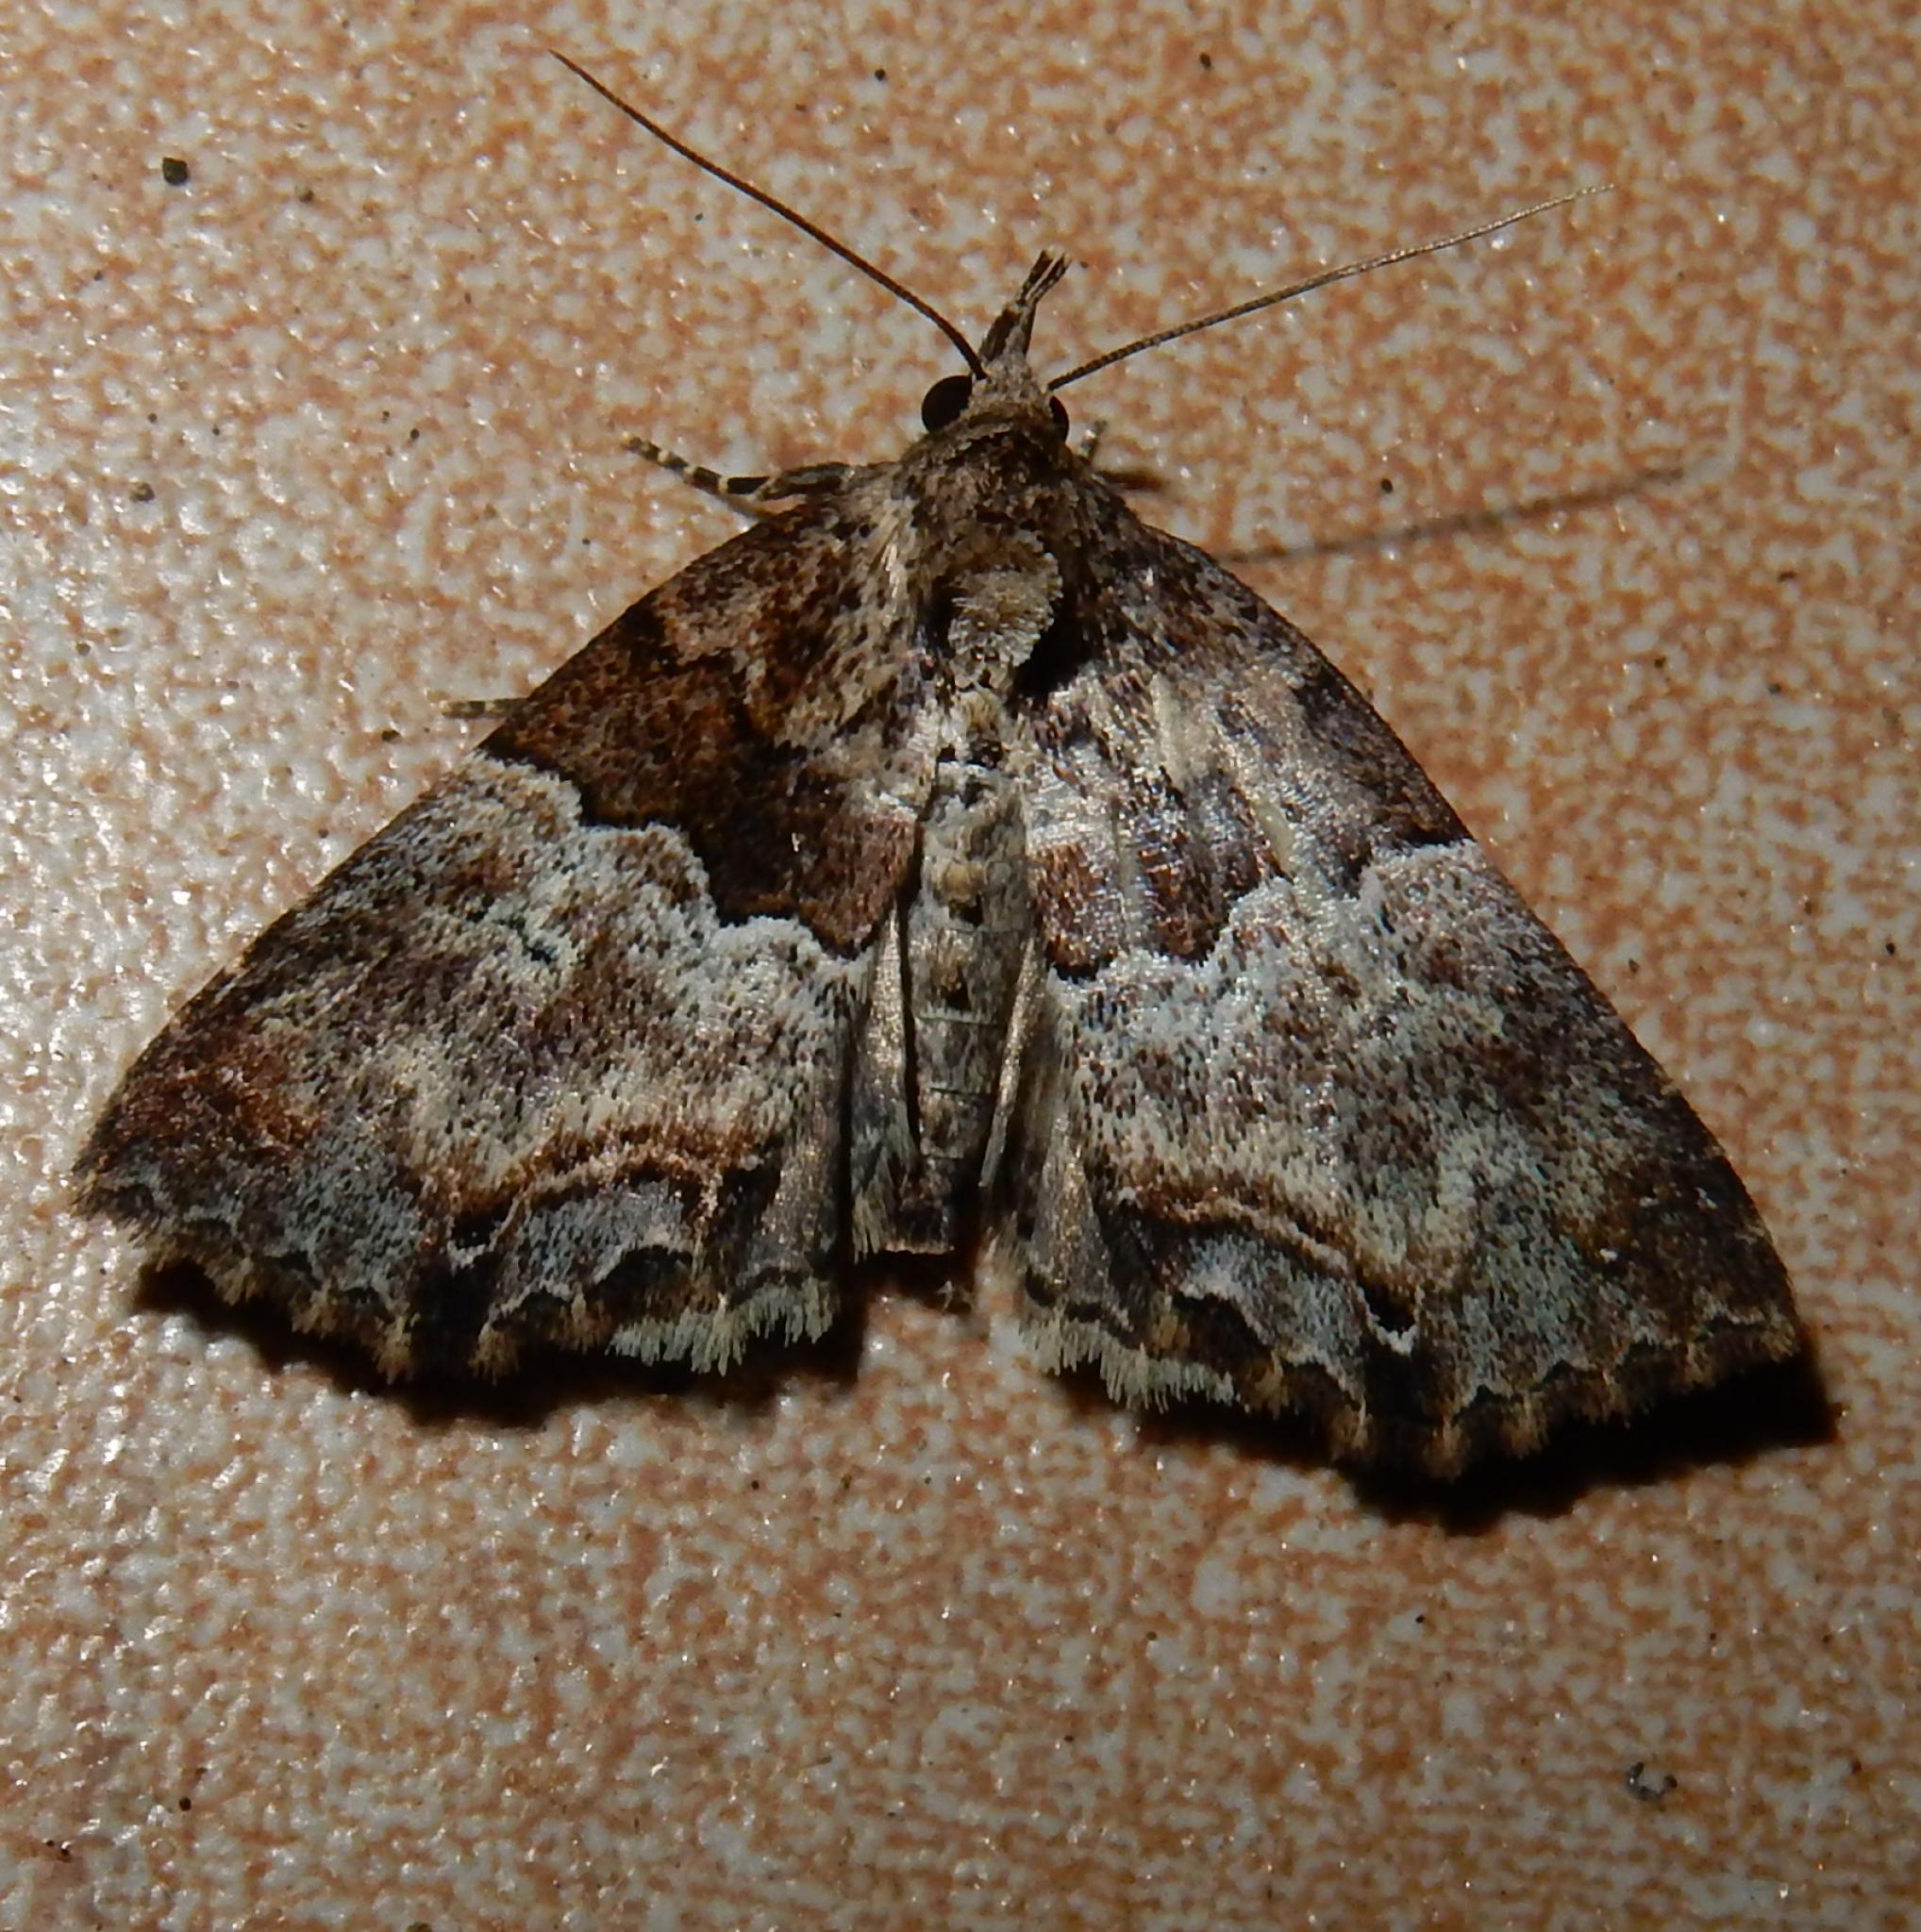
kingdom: Animalia
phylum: Arthropoda
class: Insecta
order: Lepidoptera
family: Erebidae
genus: Sarmatia
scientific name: Sarmatia interitalis
